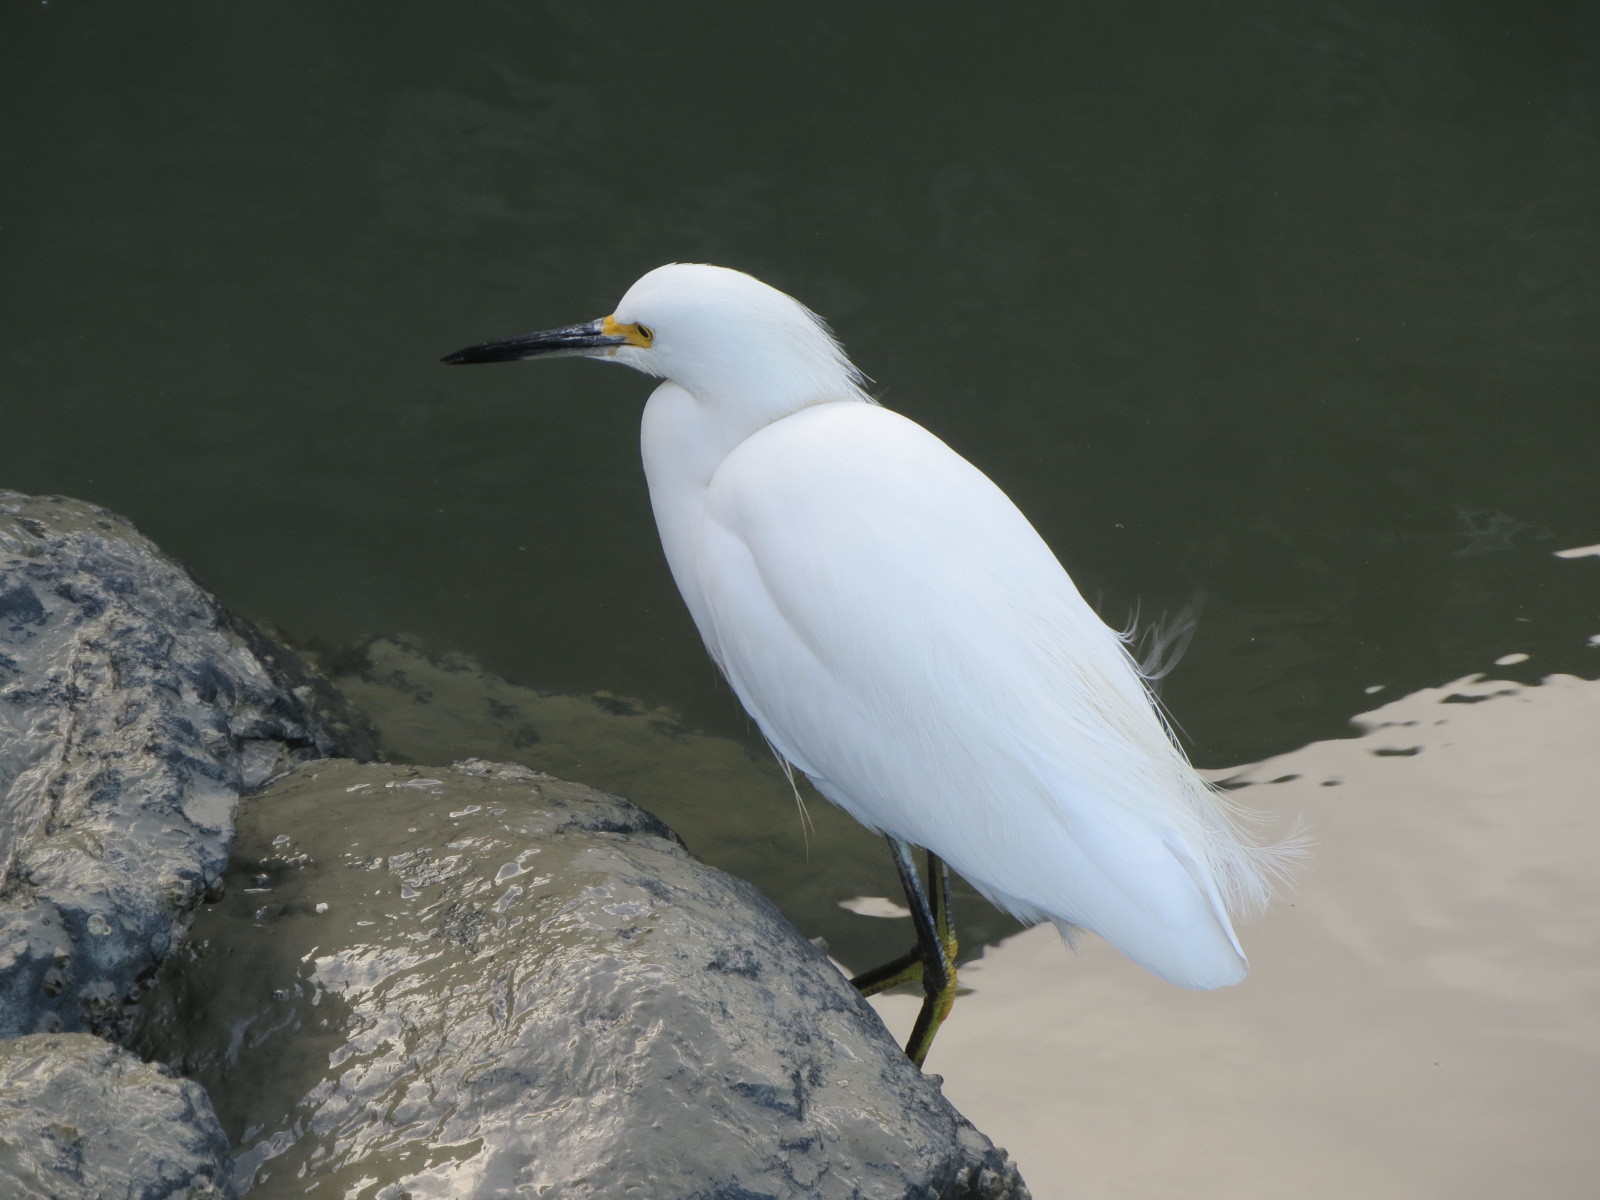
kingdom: Animalia
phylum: Chordata
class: Aves
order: Pelecaniformes
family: Ardeidae
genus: Egretta
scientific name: Egretta thula
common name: Snowy egret
